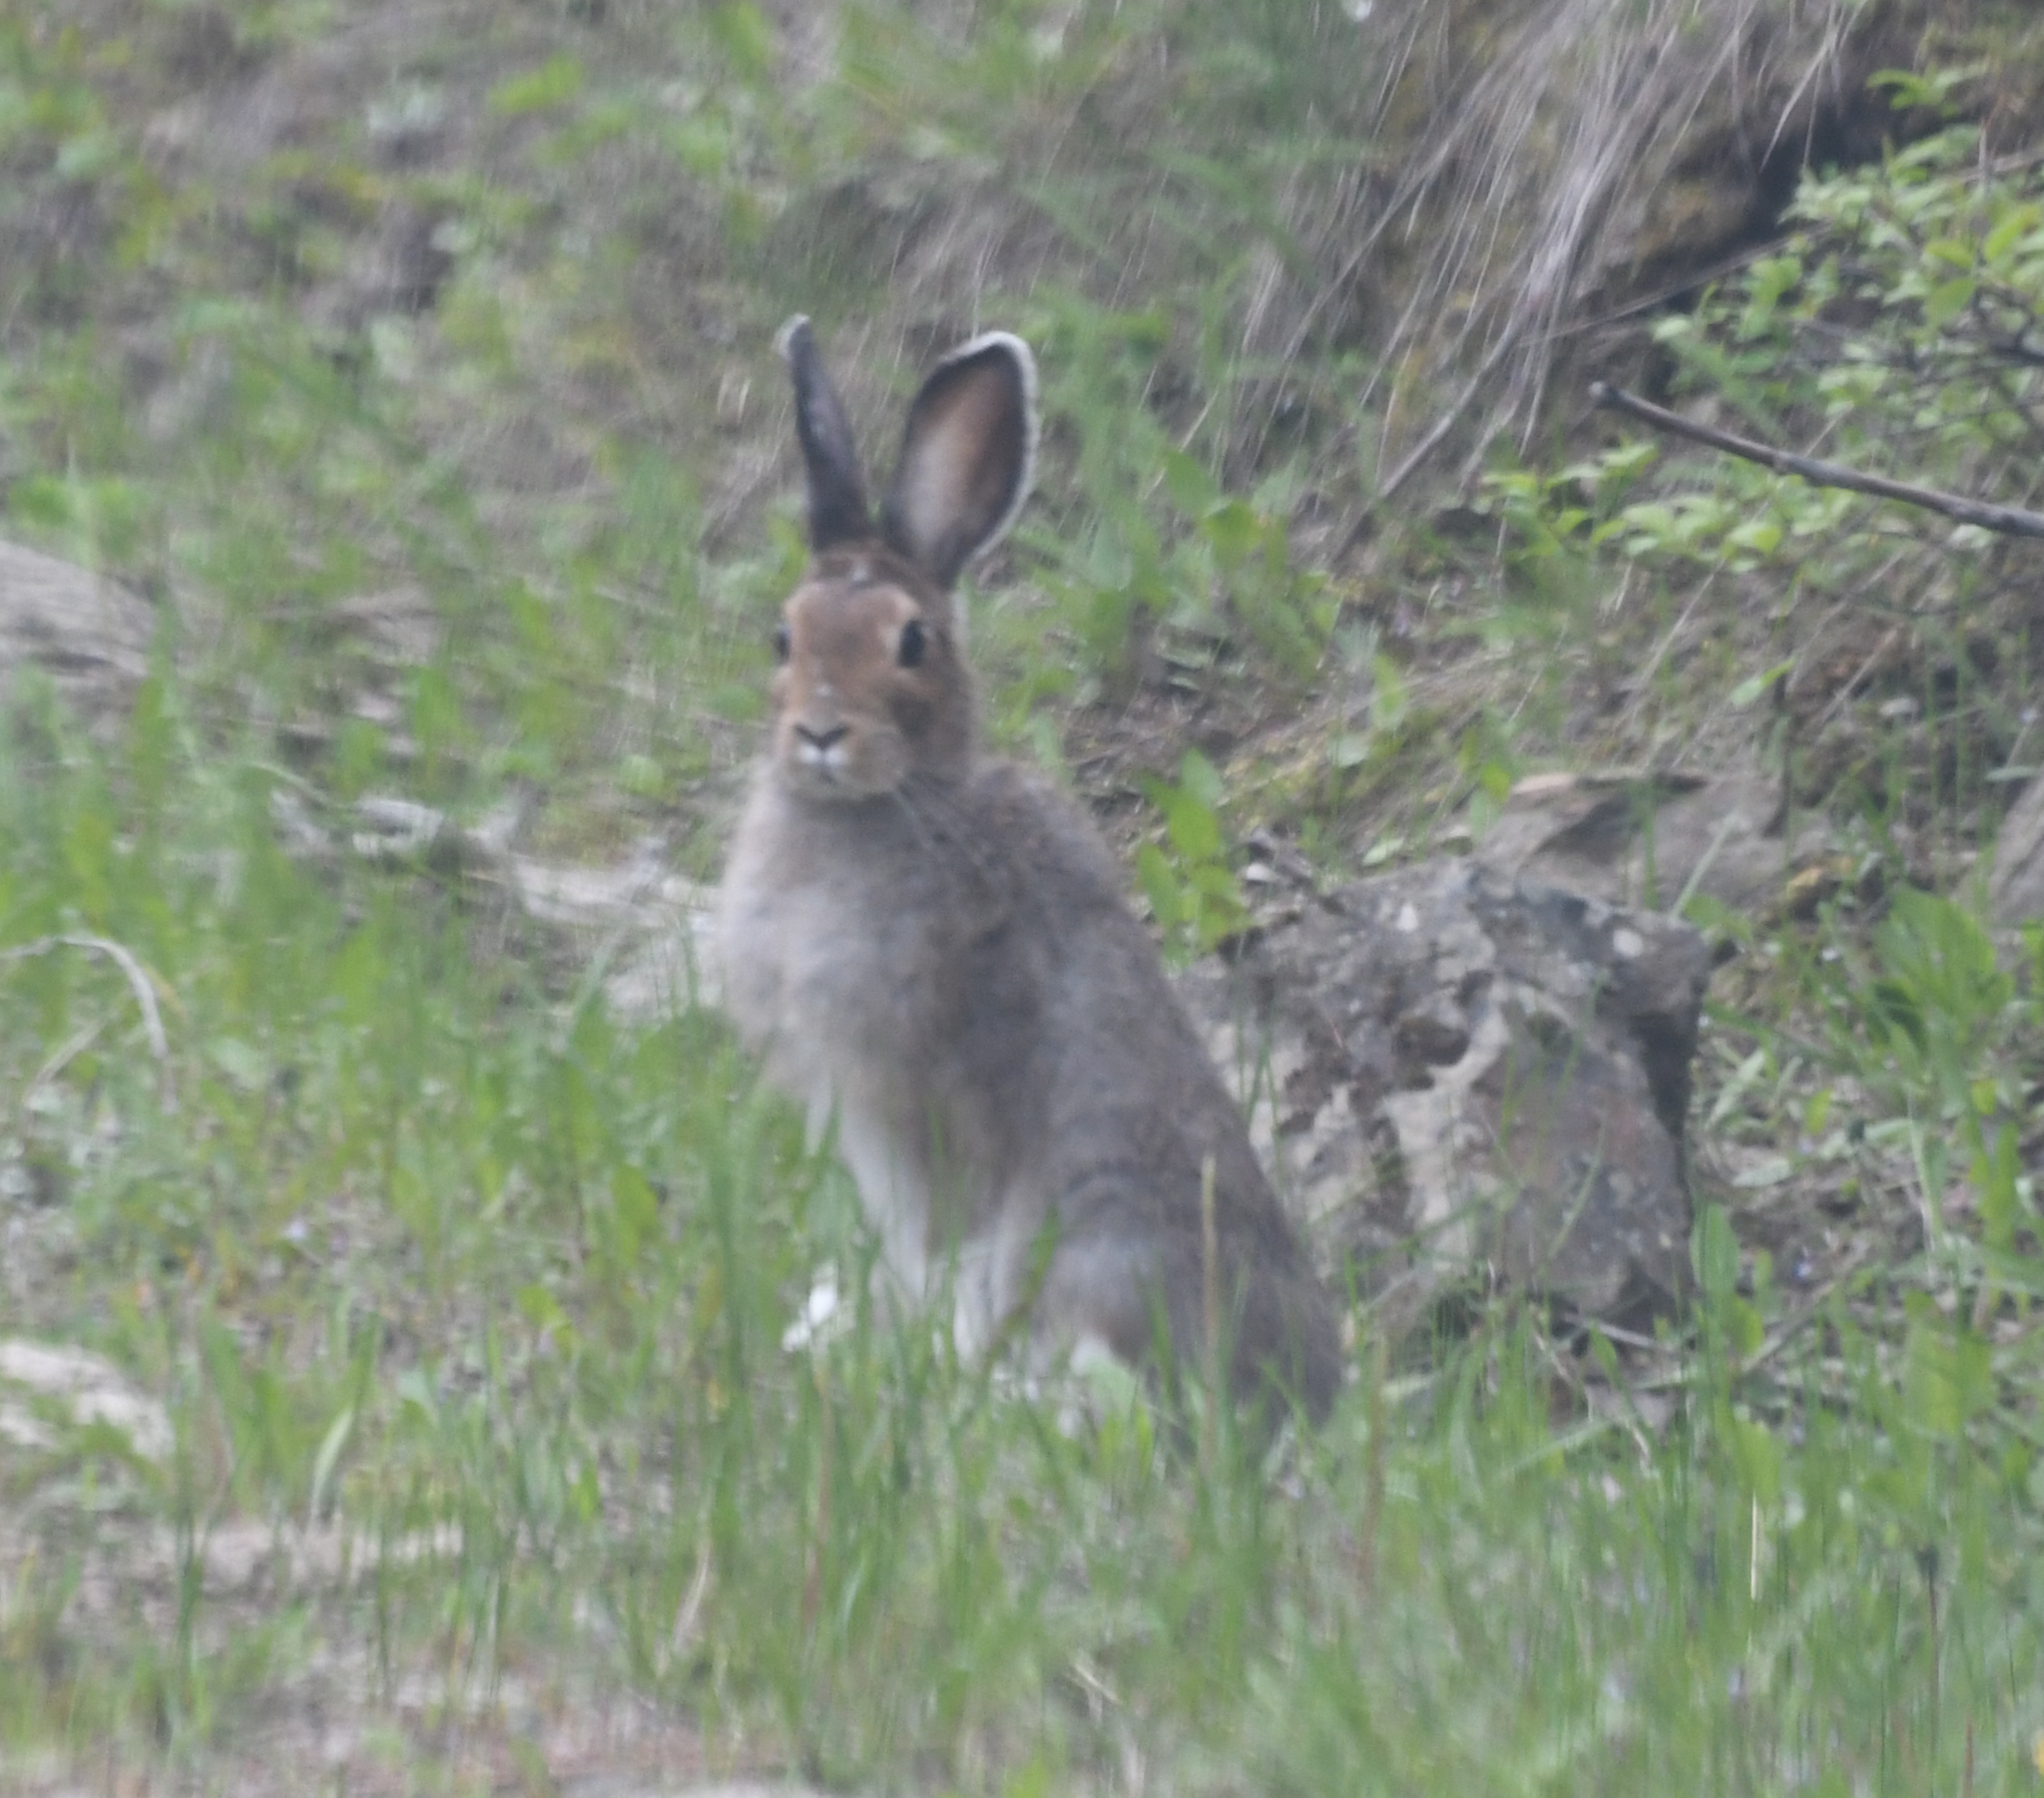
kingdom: Animalia
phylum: Chordata
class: Mammalia
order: Lagomorpha
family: Leporidae
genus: Lepus
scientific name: Lepus americanus
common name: Snowshoe hare
